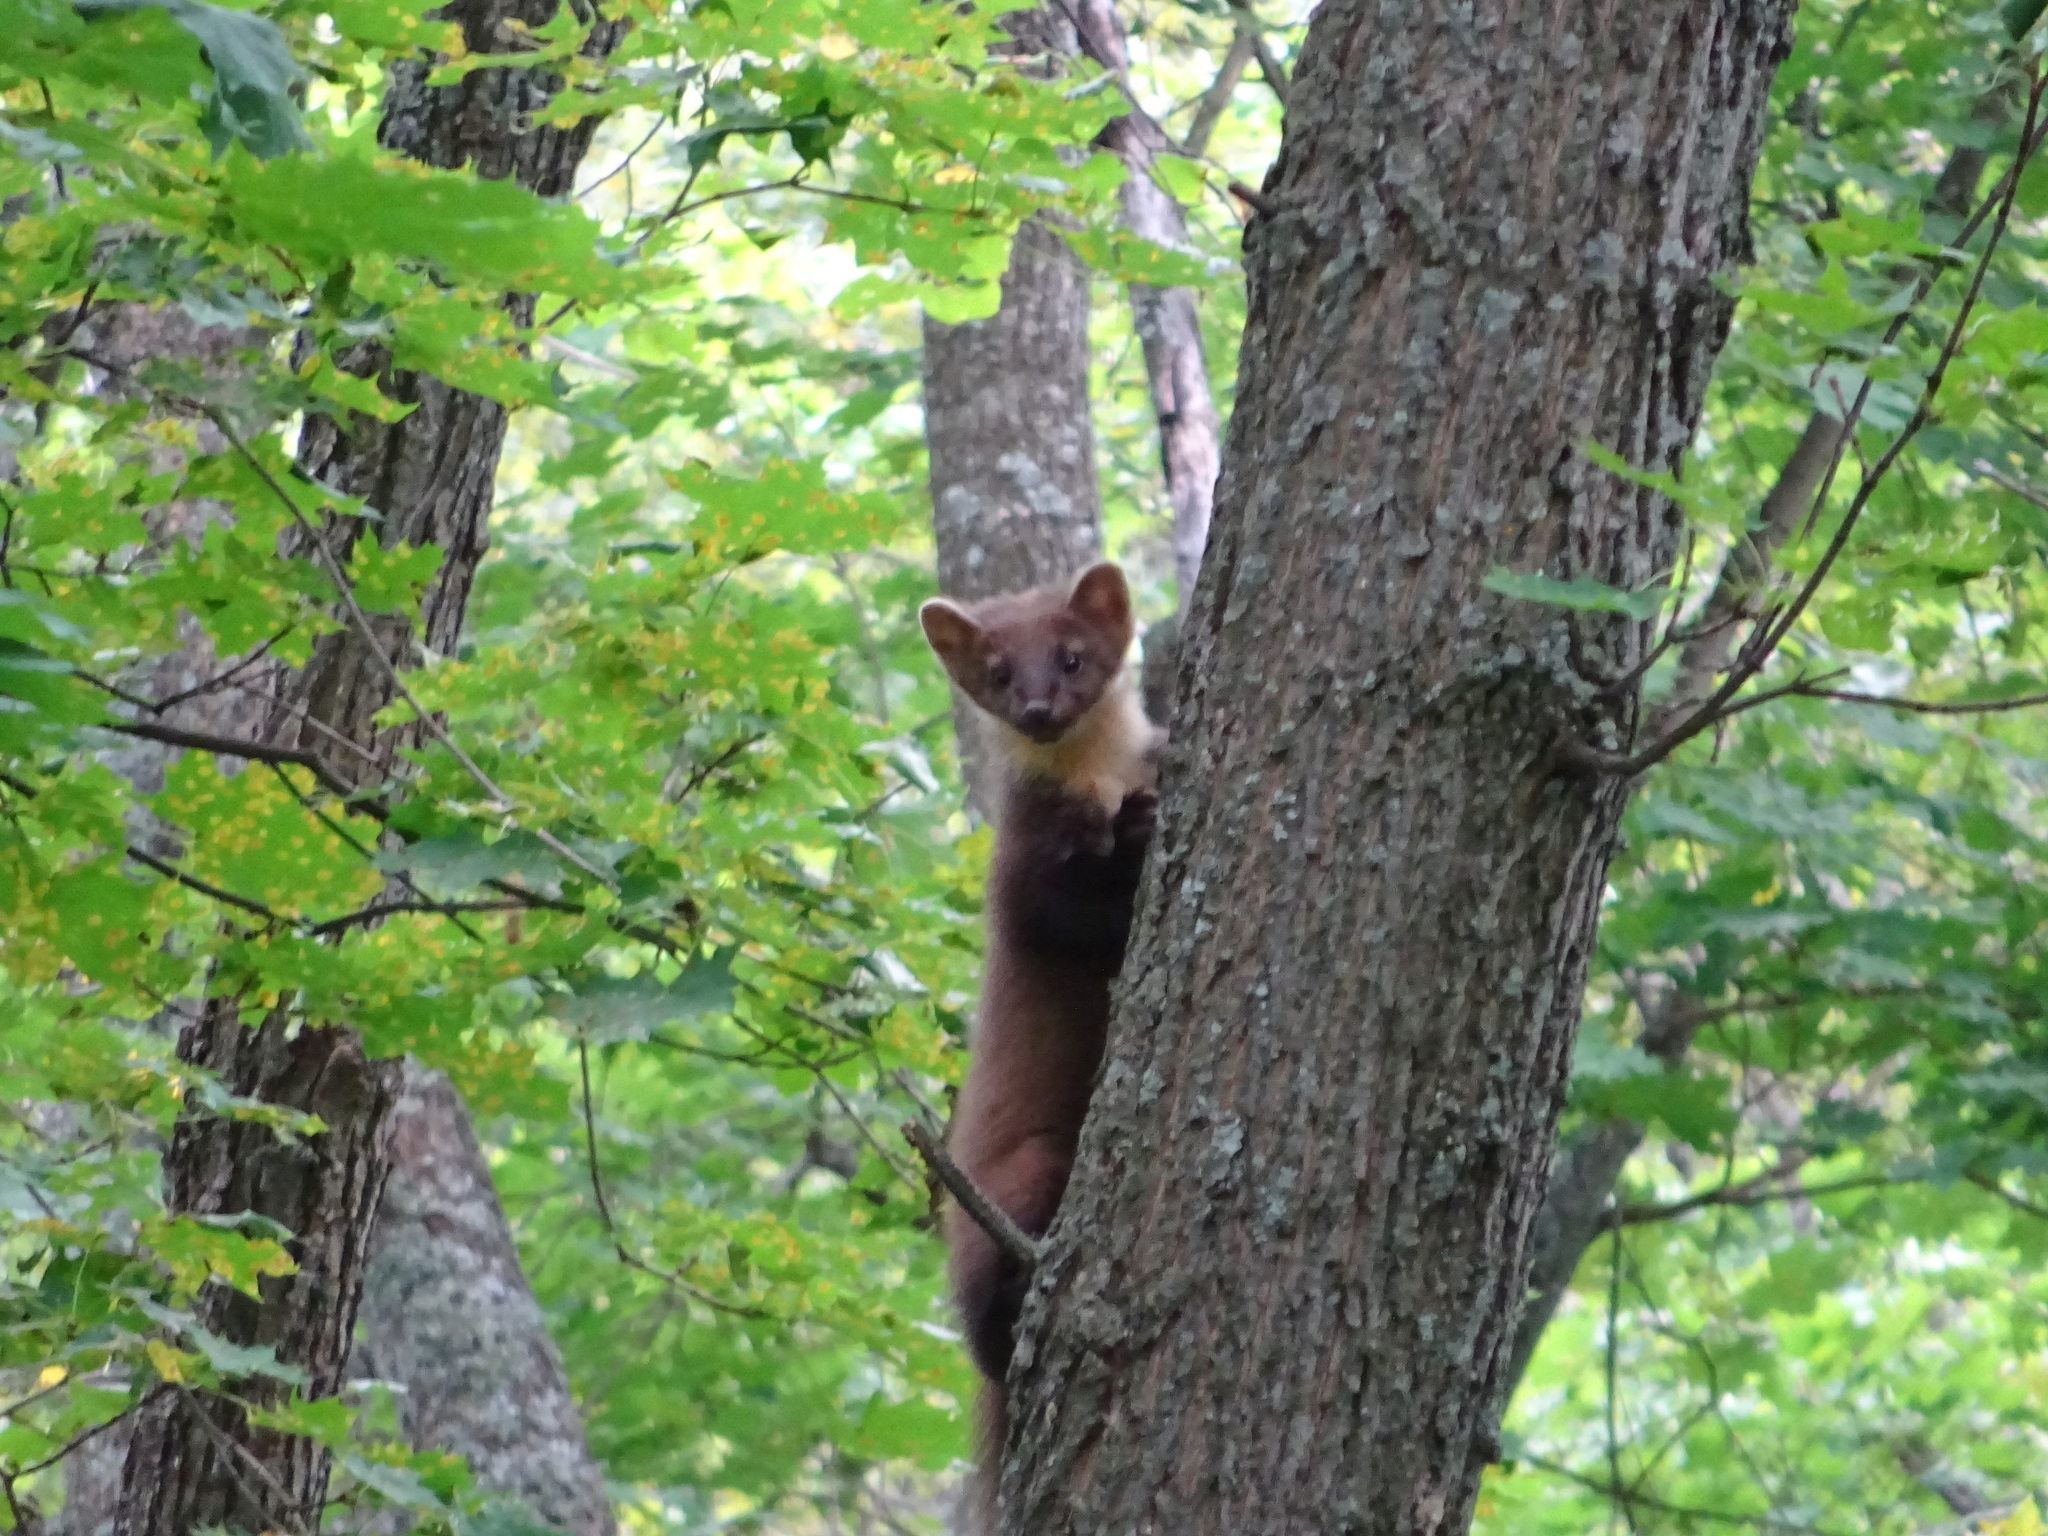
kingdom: Animalia
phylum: Chordata
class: Mammalia
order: Carnivora
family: Mustelidae
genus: Martes
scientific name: Martes martes
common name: European pine marten
